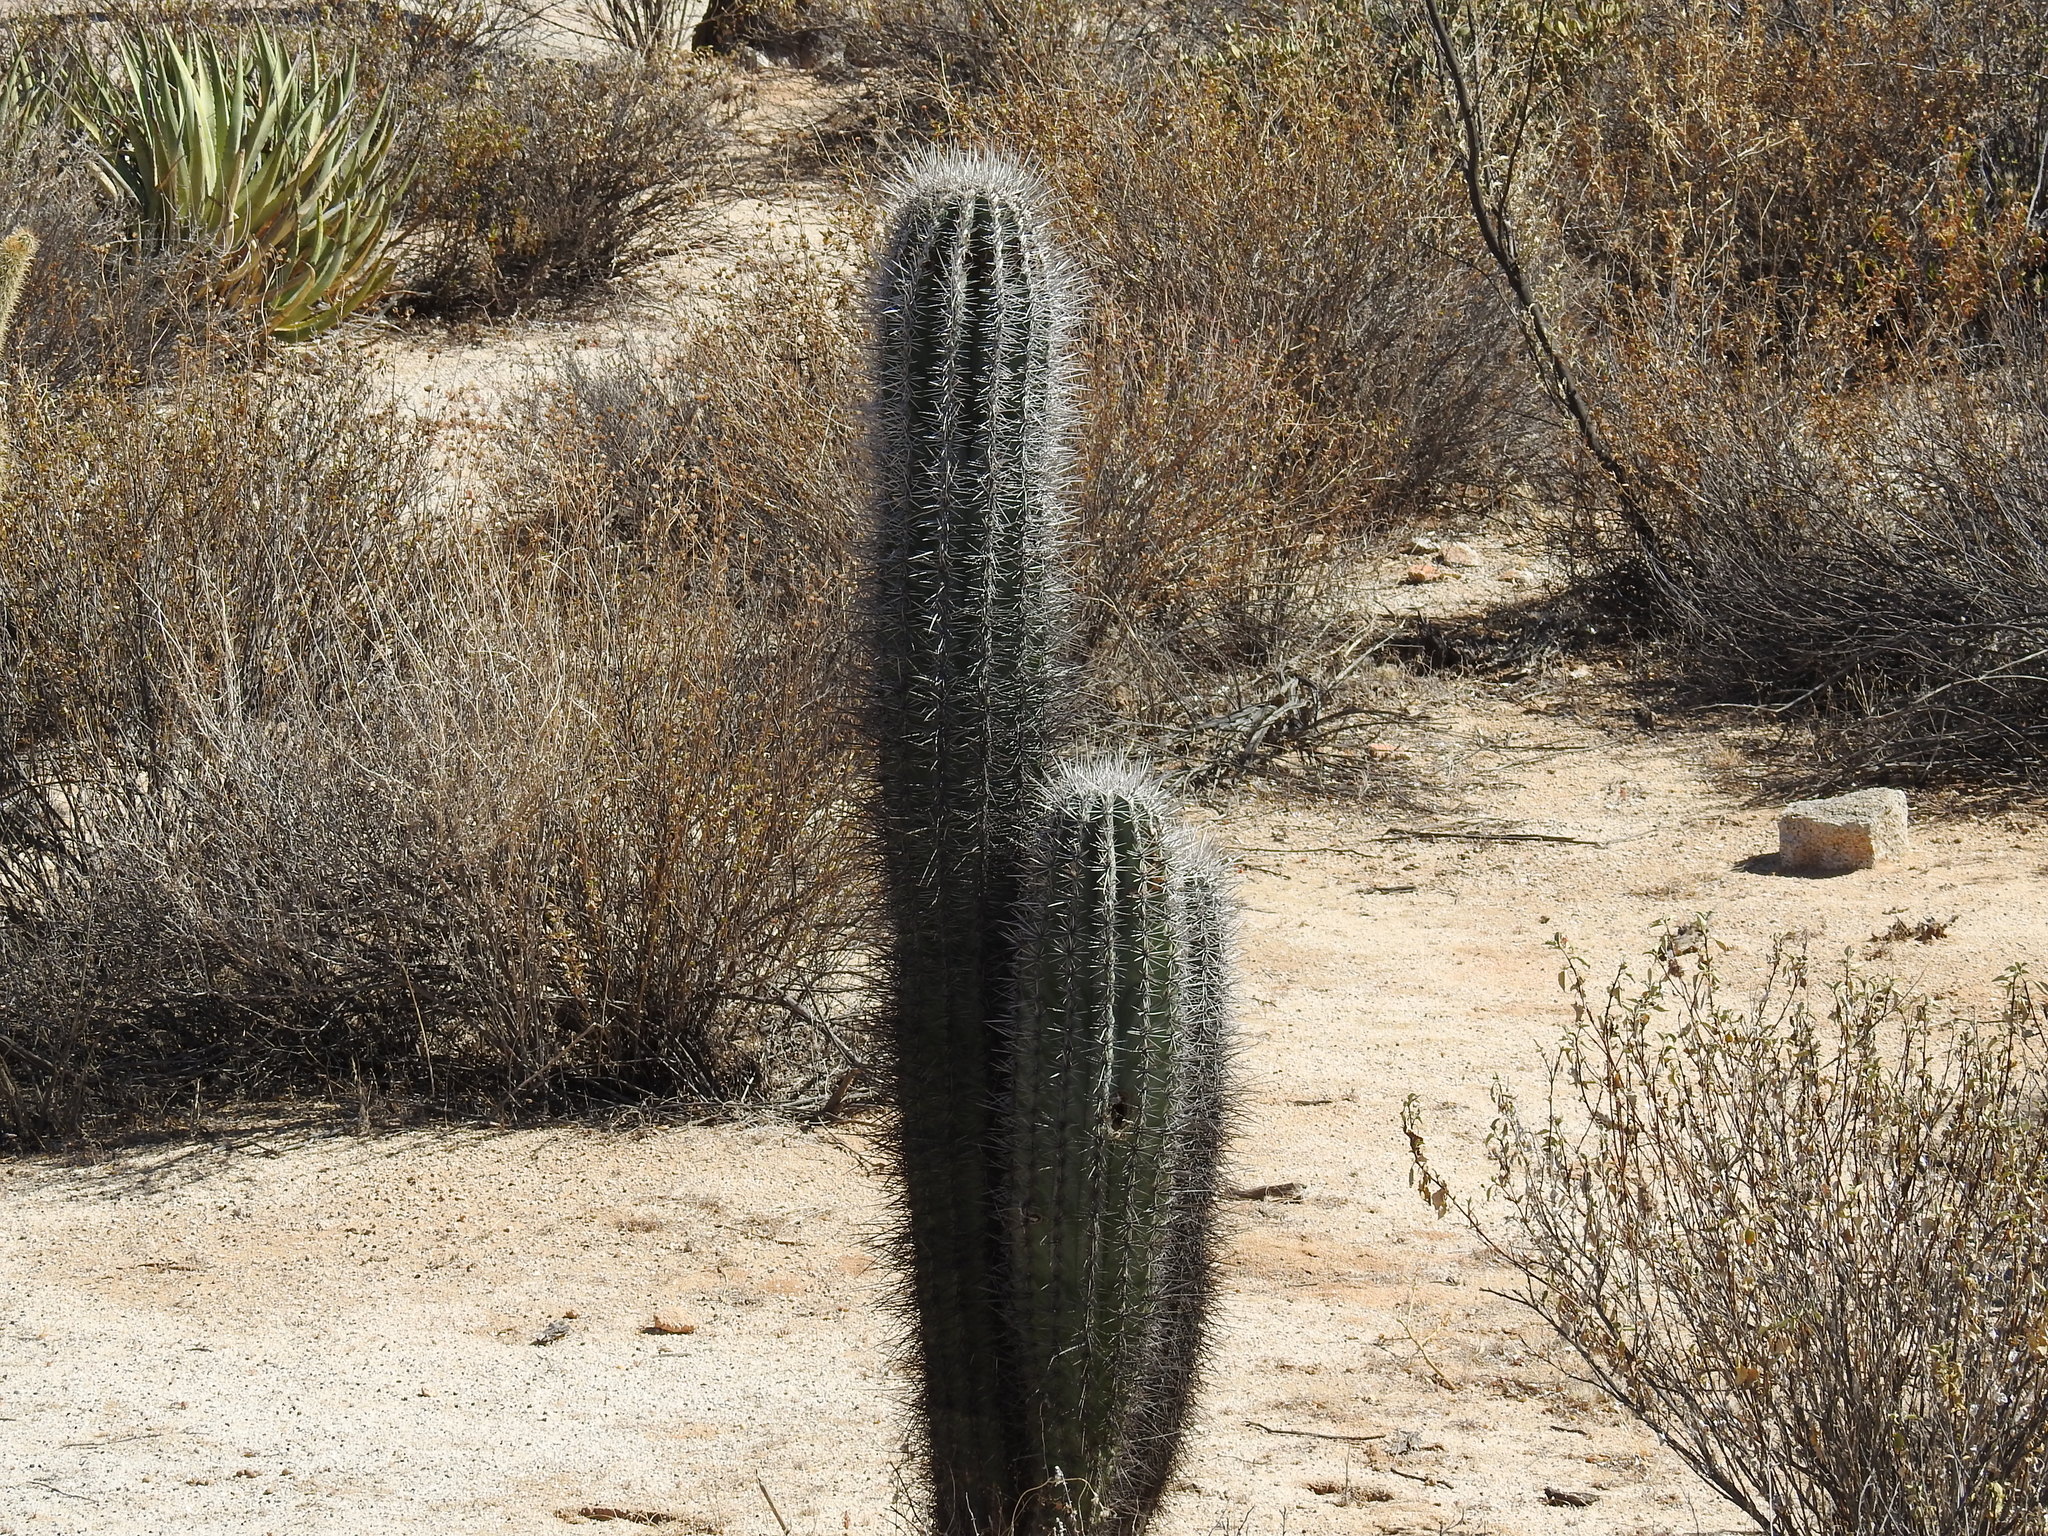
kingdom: Plantae
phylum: Tracheophyta
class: Magnoliopsida
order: Caryophyllales
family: Cactaceae
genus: Pachycereus
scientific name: Pachycereus pringlei
